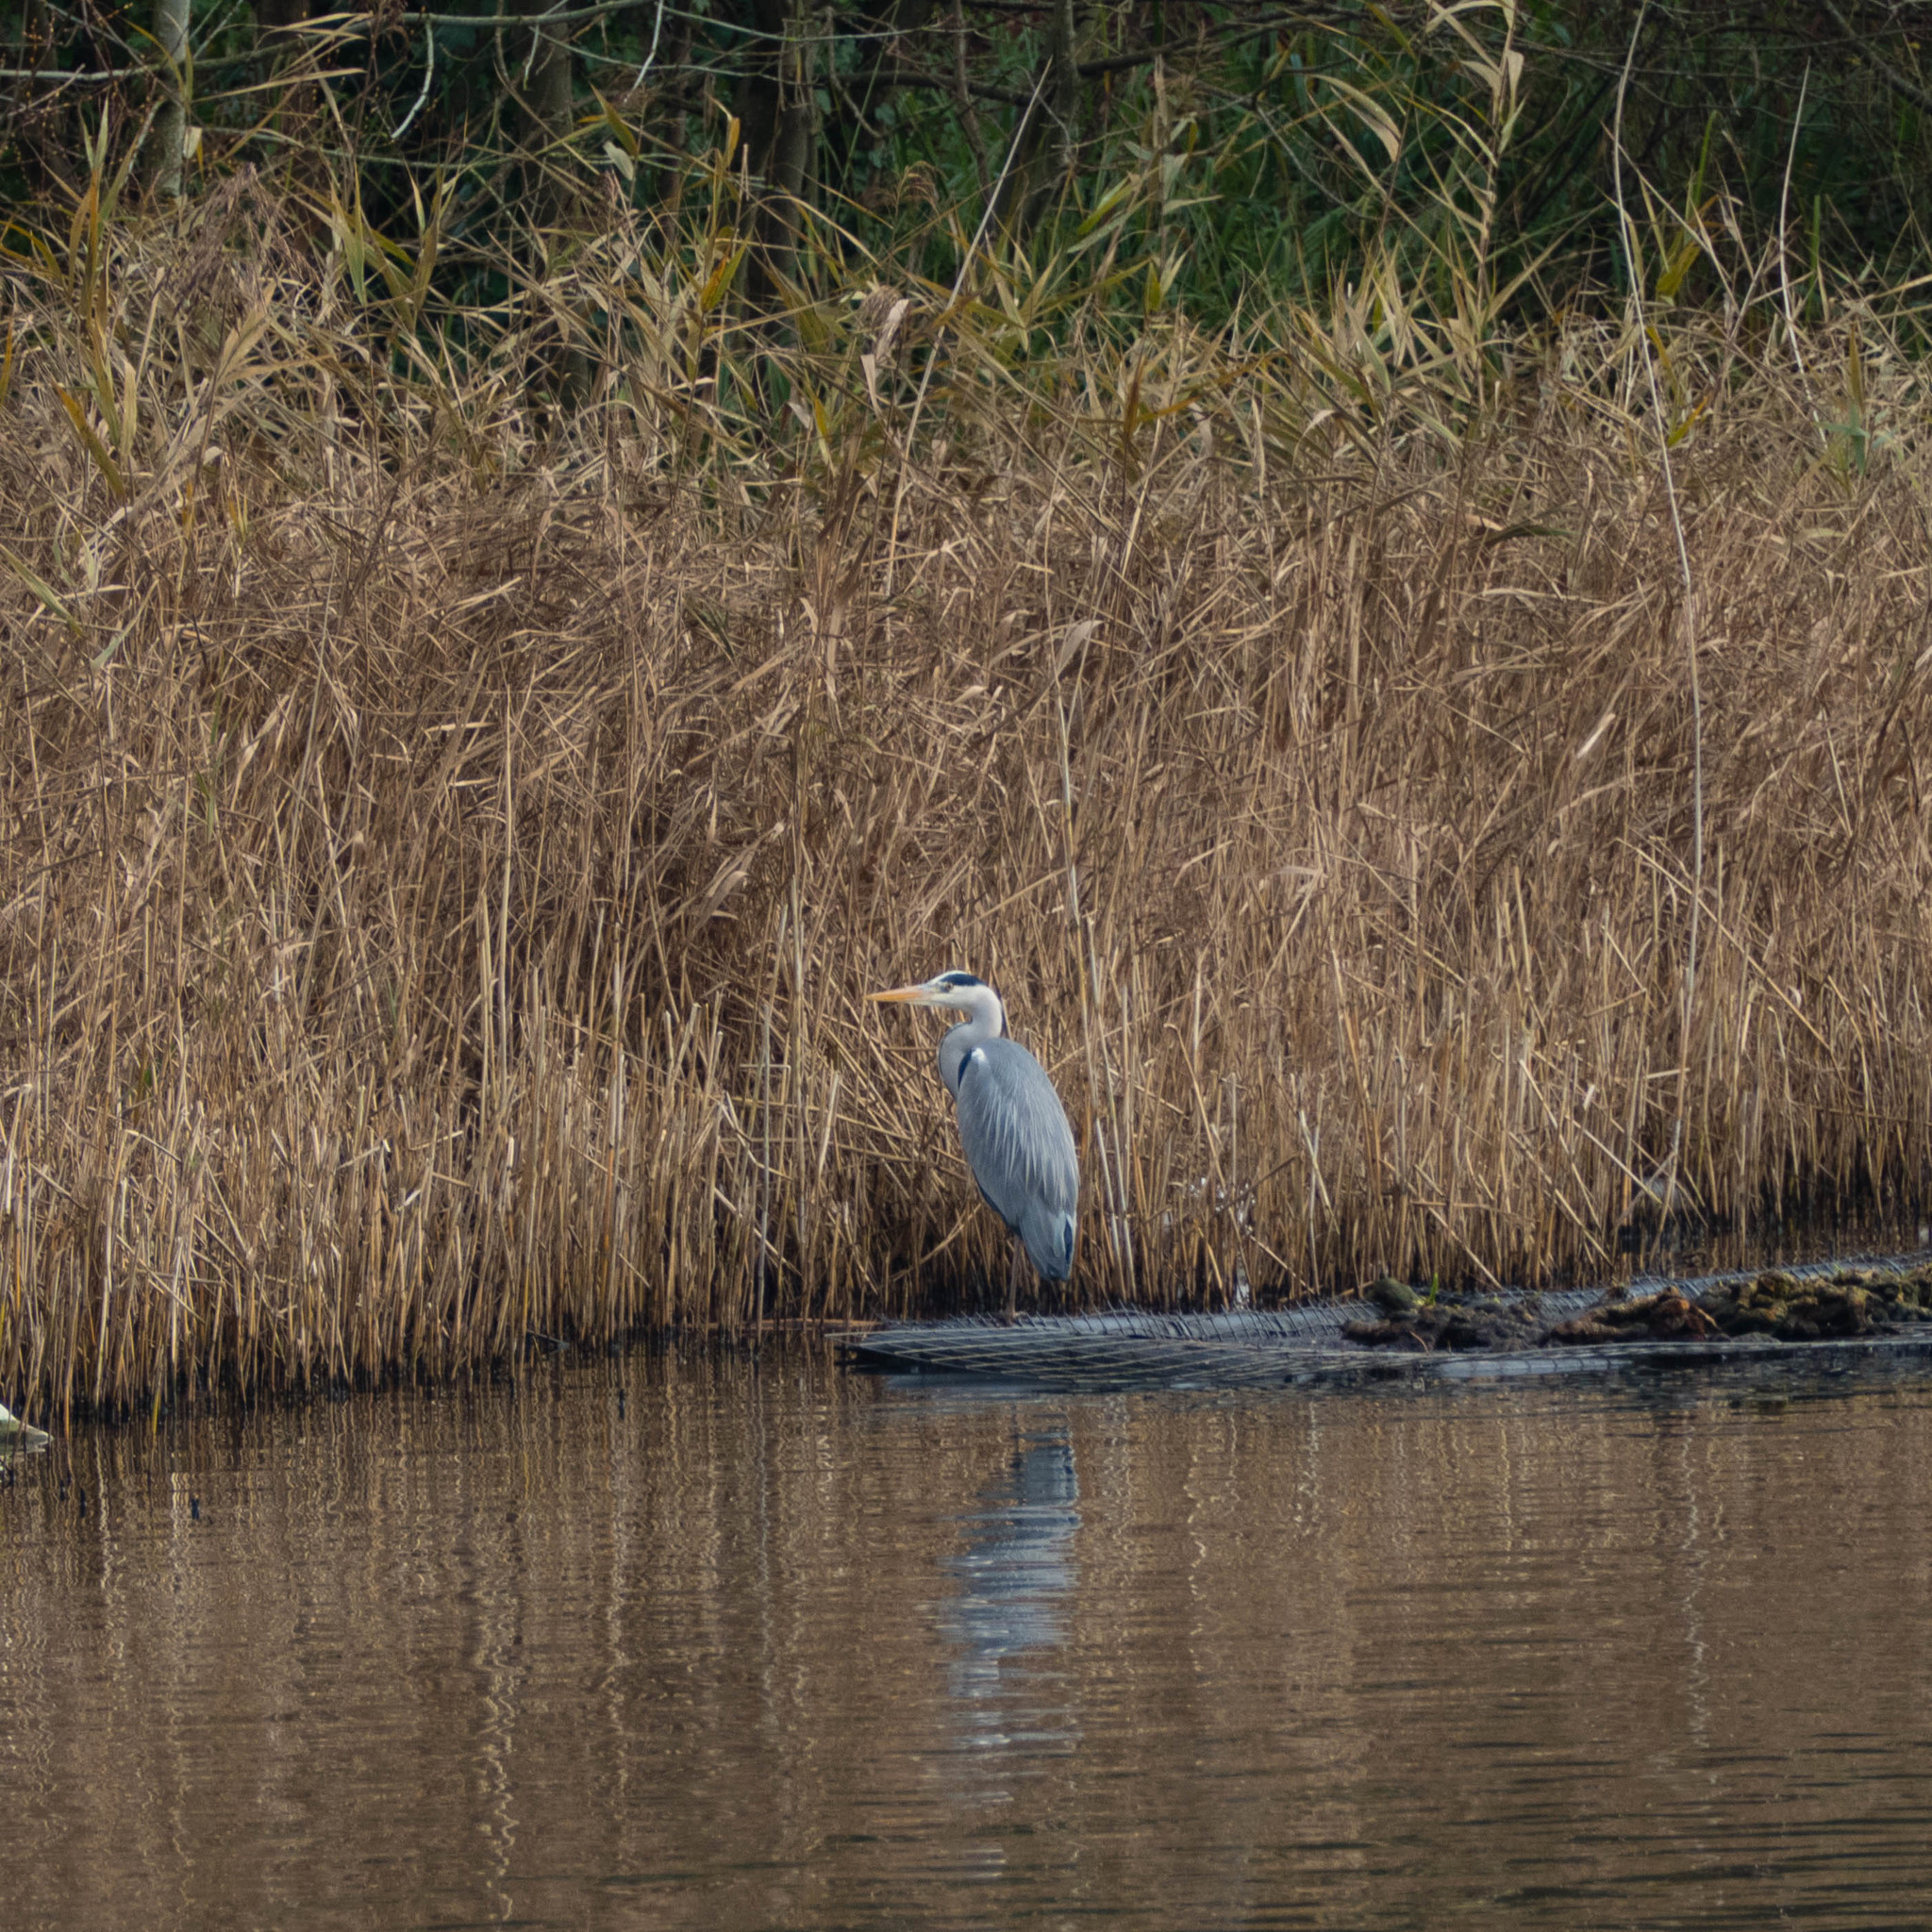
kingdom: Animalia
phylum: Chordata
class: Aves
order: Pelecaniformes
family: Ardeidae
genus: Ardea
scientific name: Ardea cinerea
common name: Grey heron
